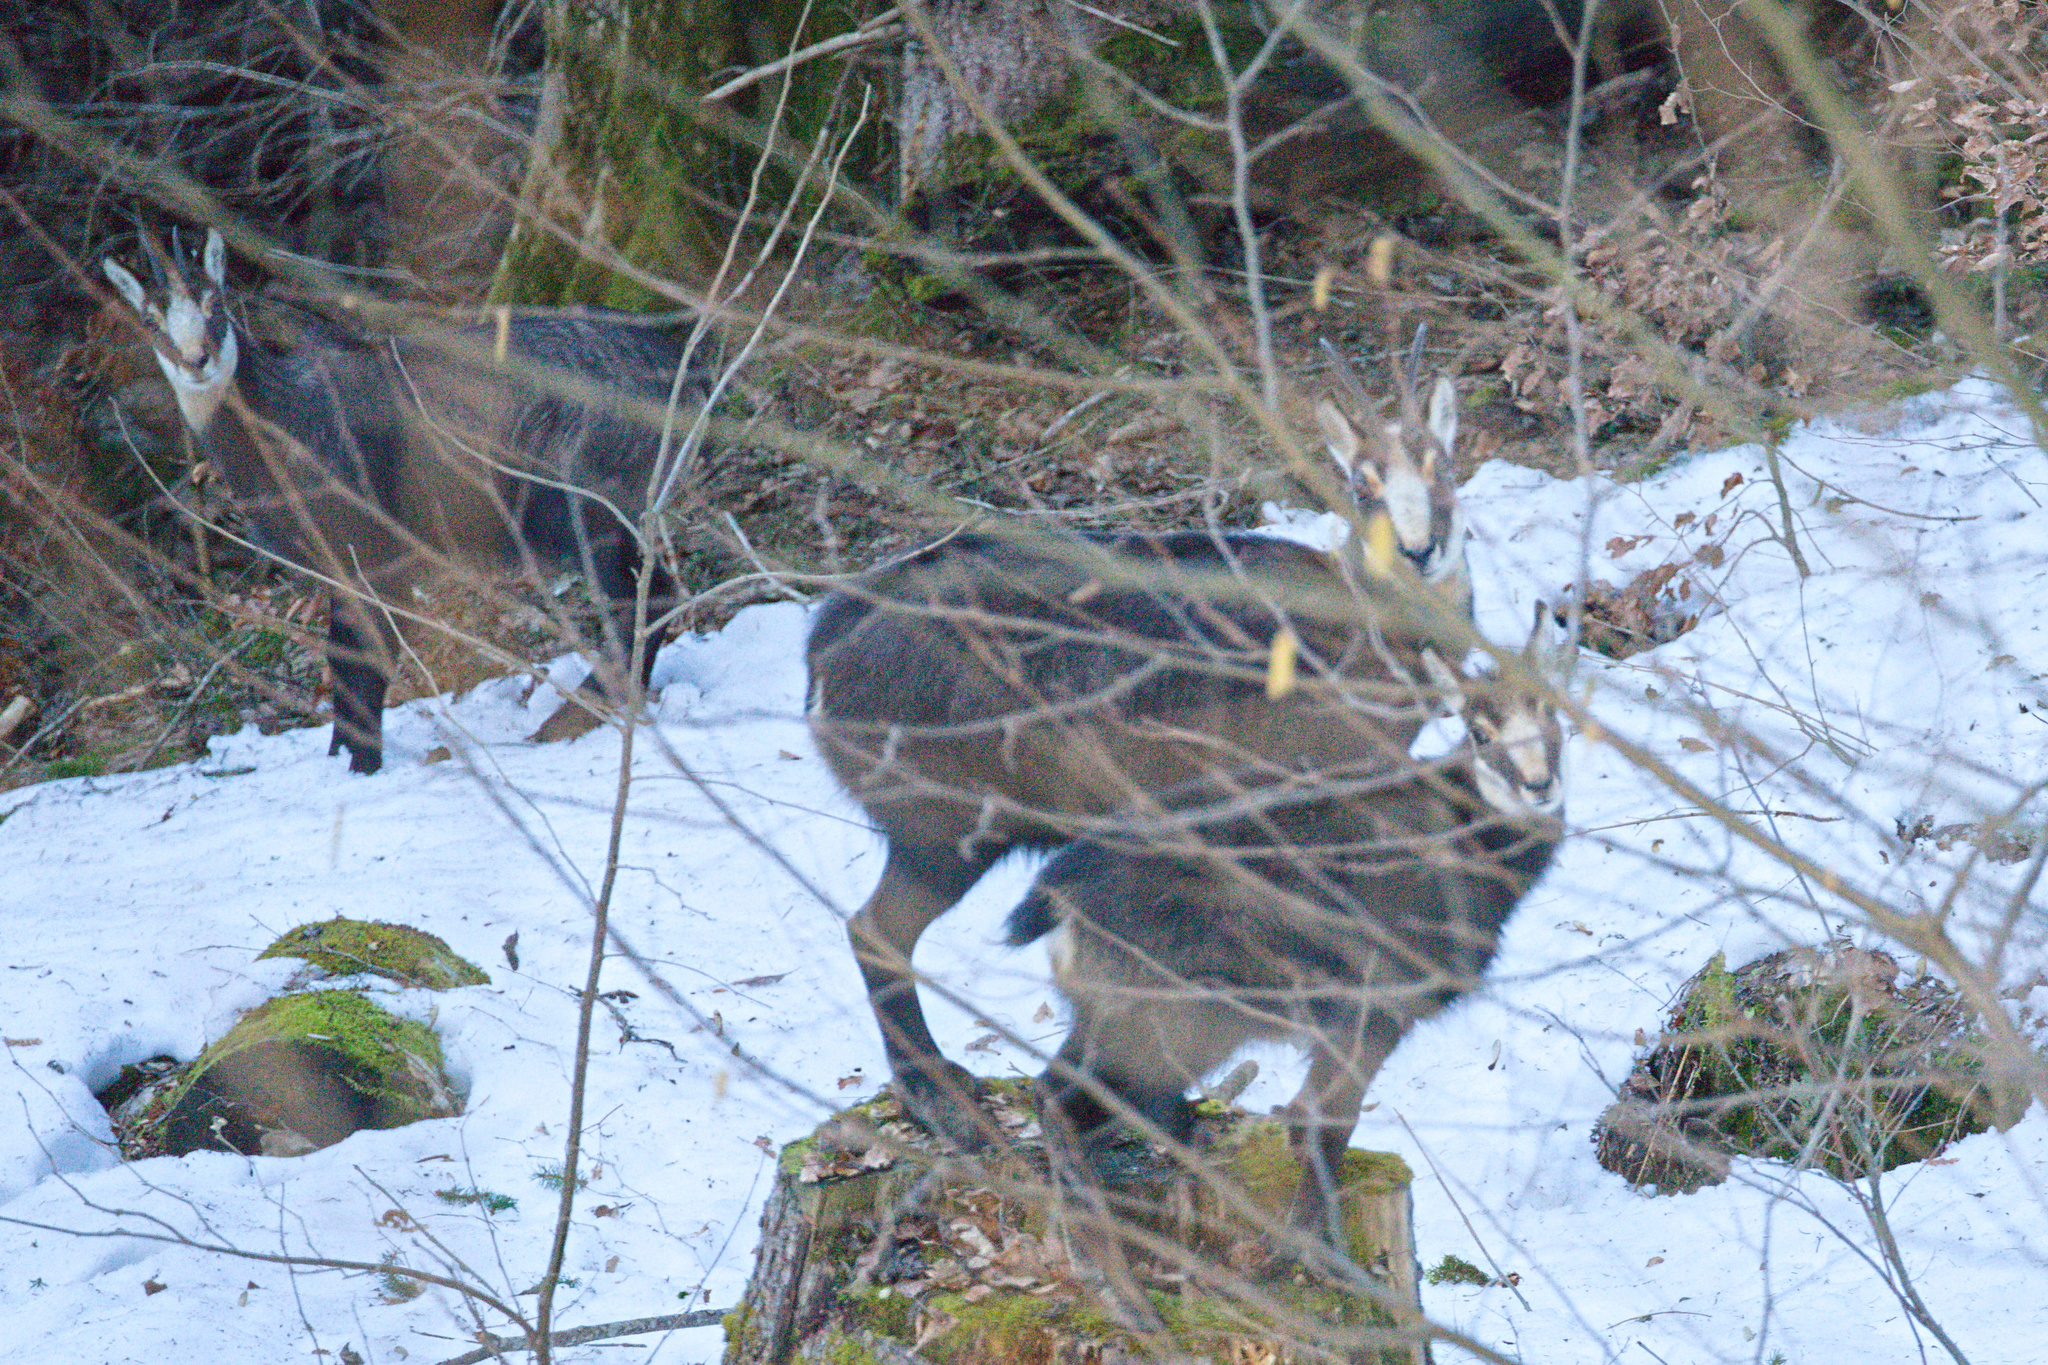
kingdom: Animalia
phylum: Chordata
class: Mammalia
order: Artiodactyla
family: Bovidae
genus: Rupicapra
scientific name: Rupicapra rupicapra
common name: Chamois
